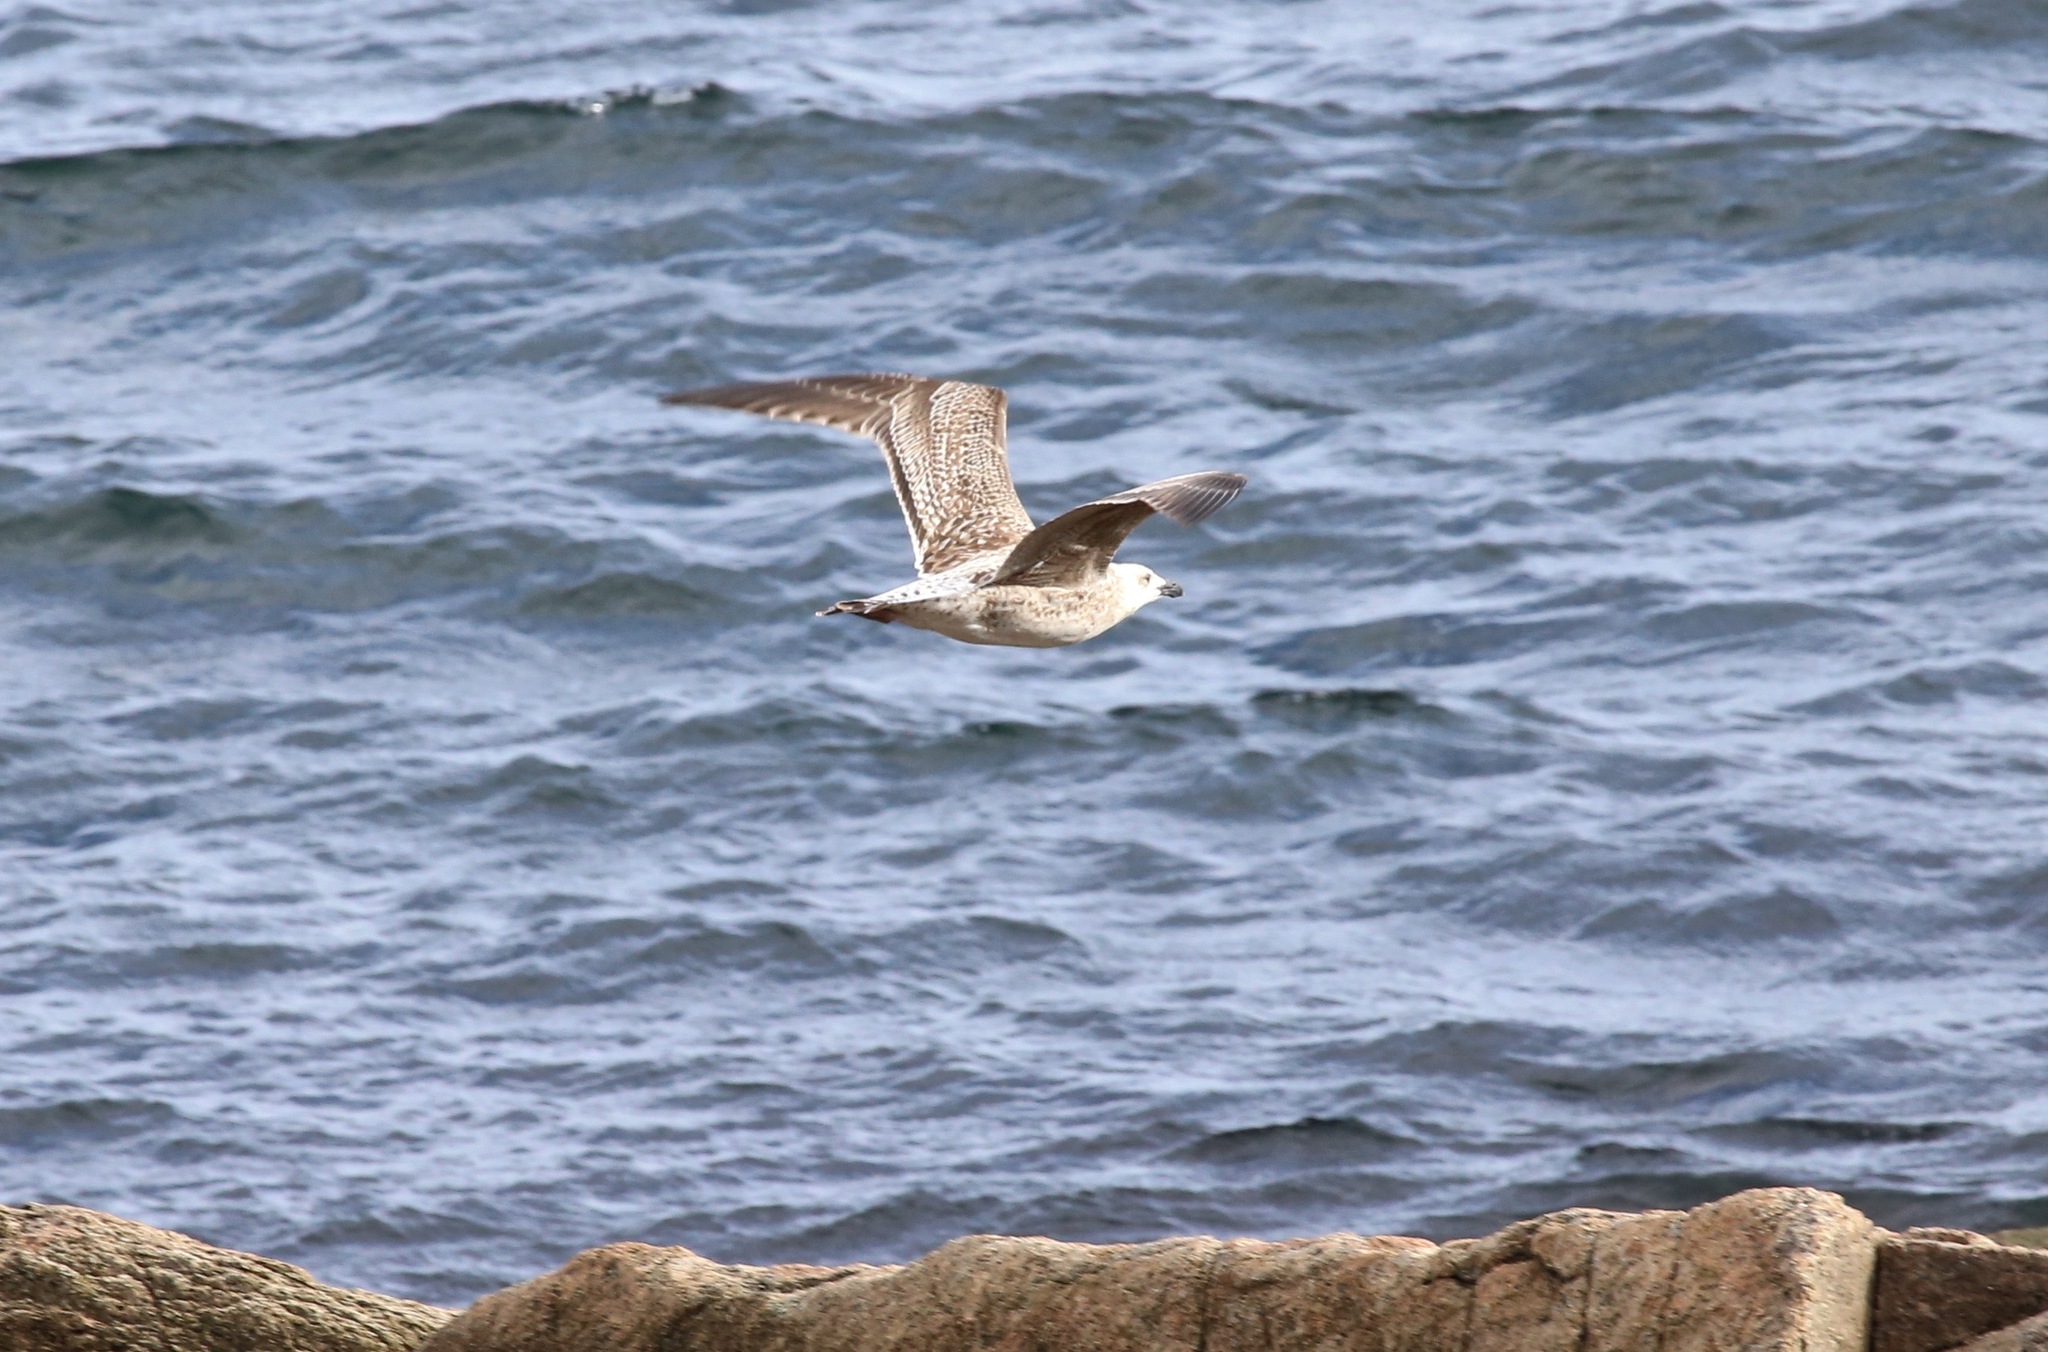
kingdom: Animalia
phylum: Chordata
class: Aves
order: Charadriiformes
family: Laridae
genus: Larus
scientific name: Larus marinus
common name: Great black-backed gull
